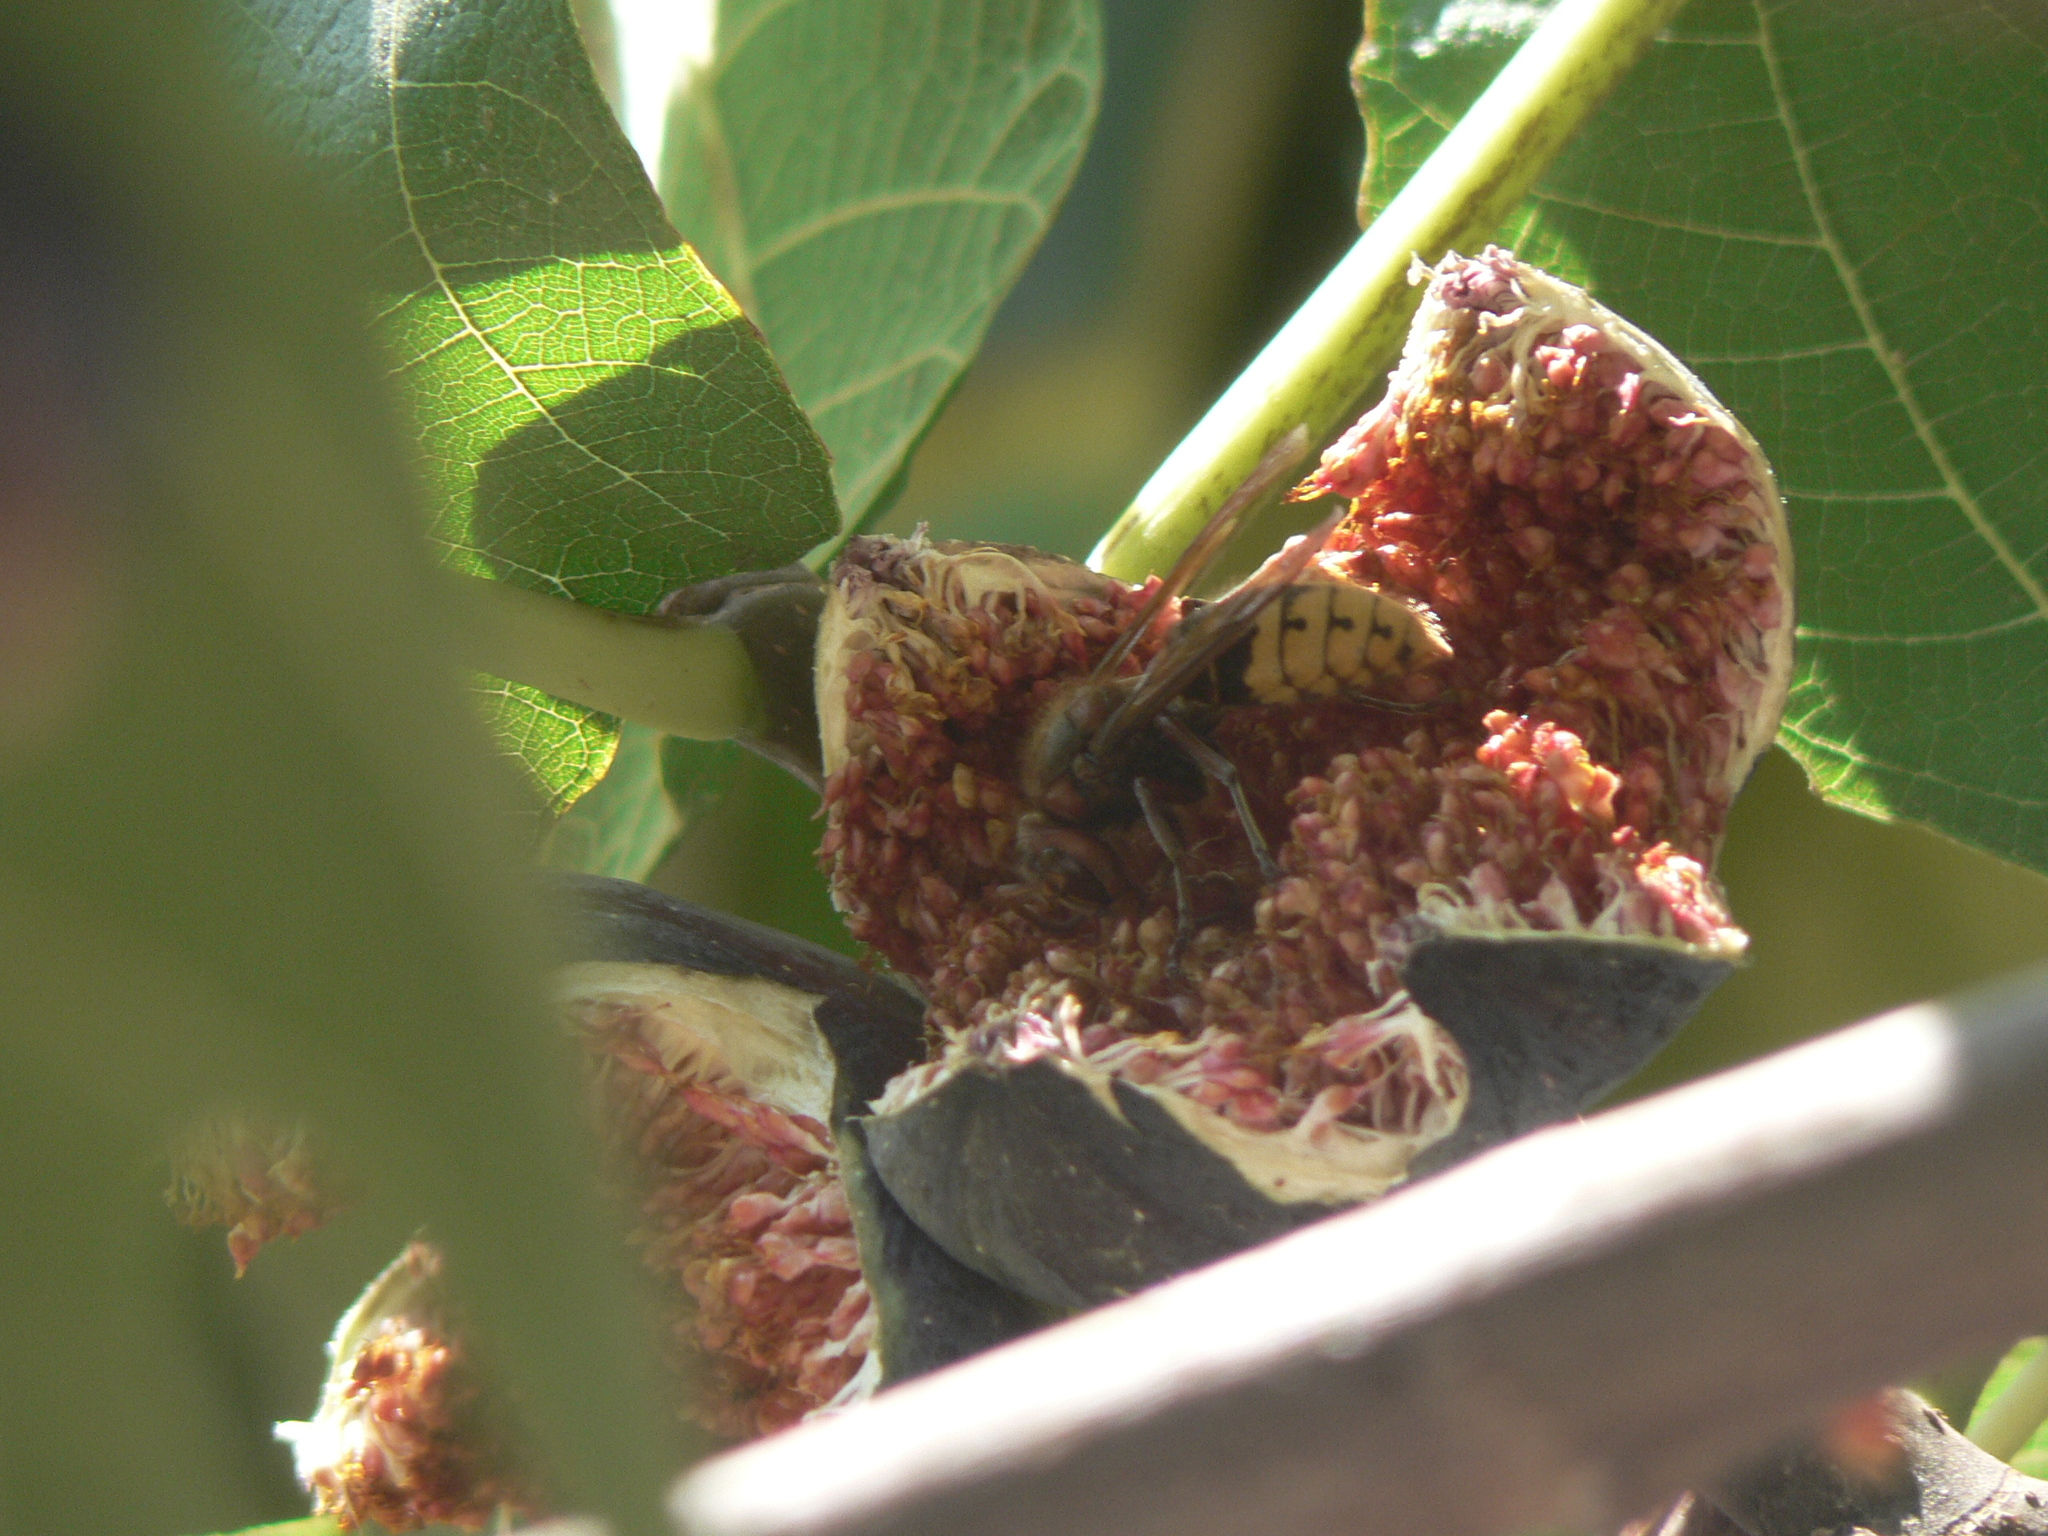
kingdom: Animalia
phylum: Arthropoda
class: Insecta
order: Hymenoptera
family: Vespidae
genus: Vespa
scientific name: Vespa crabro
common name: Hornet
